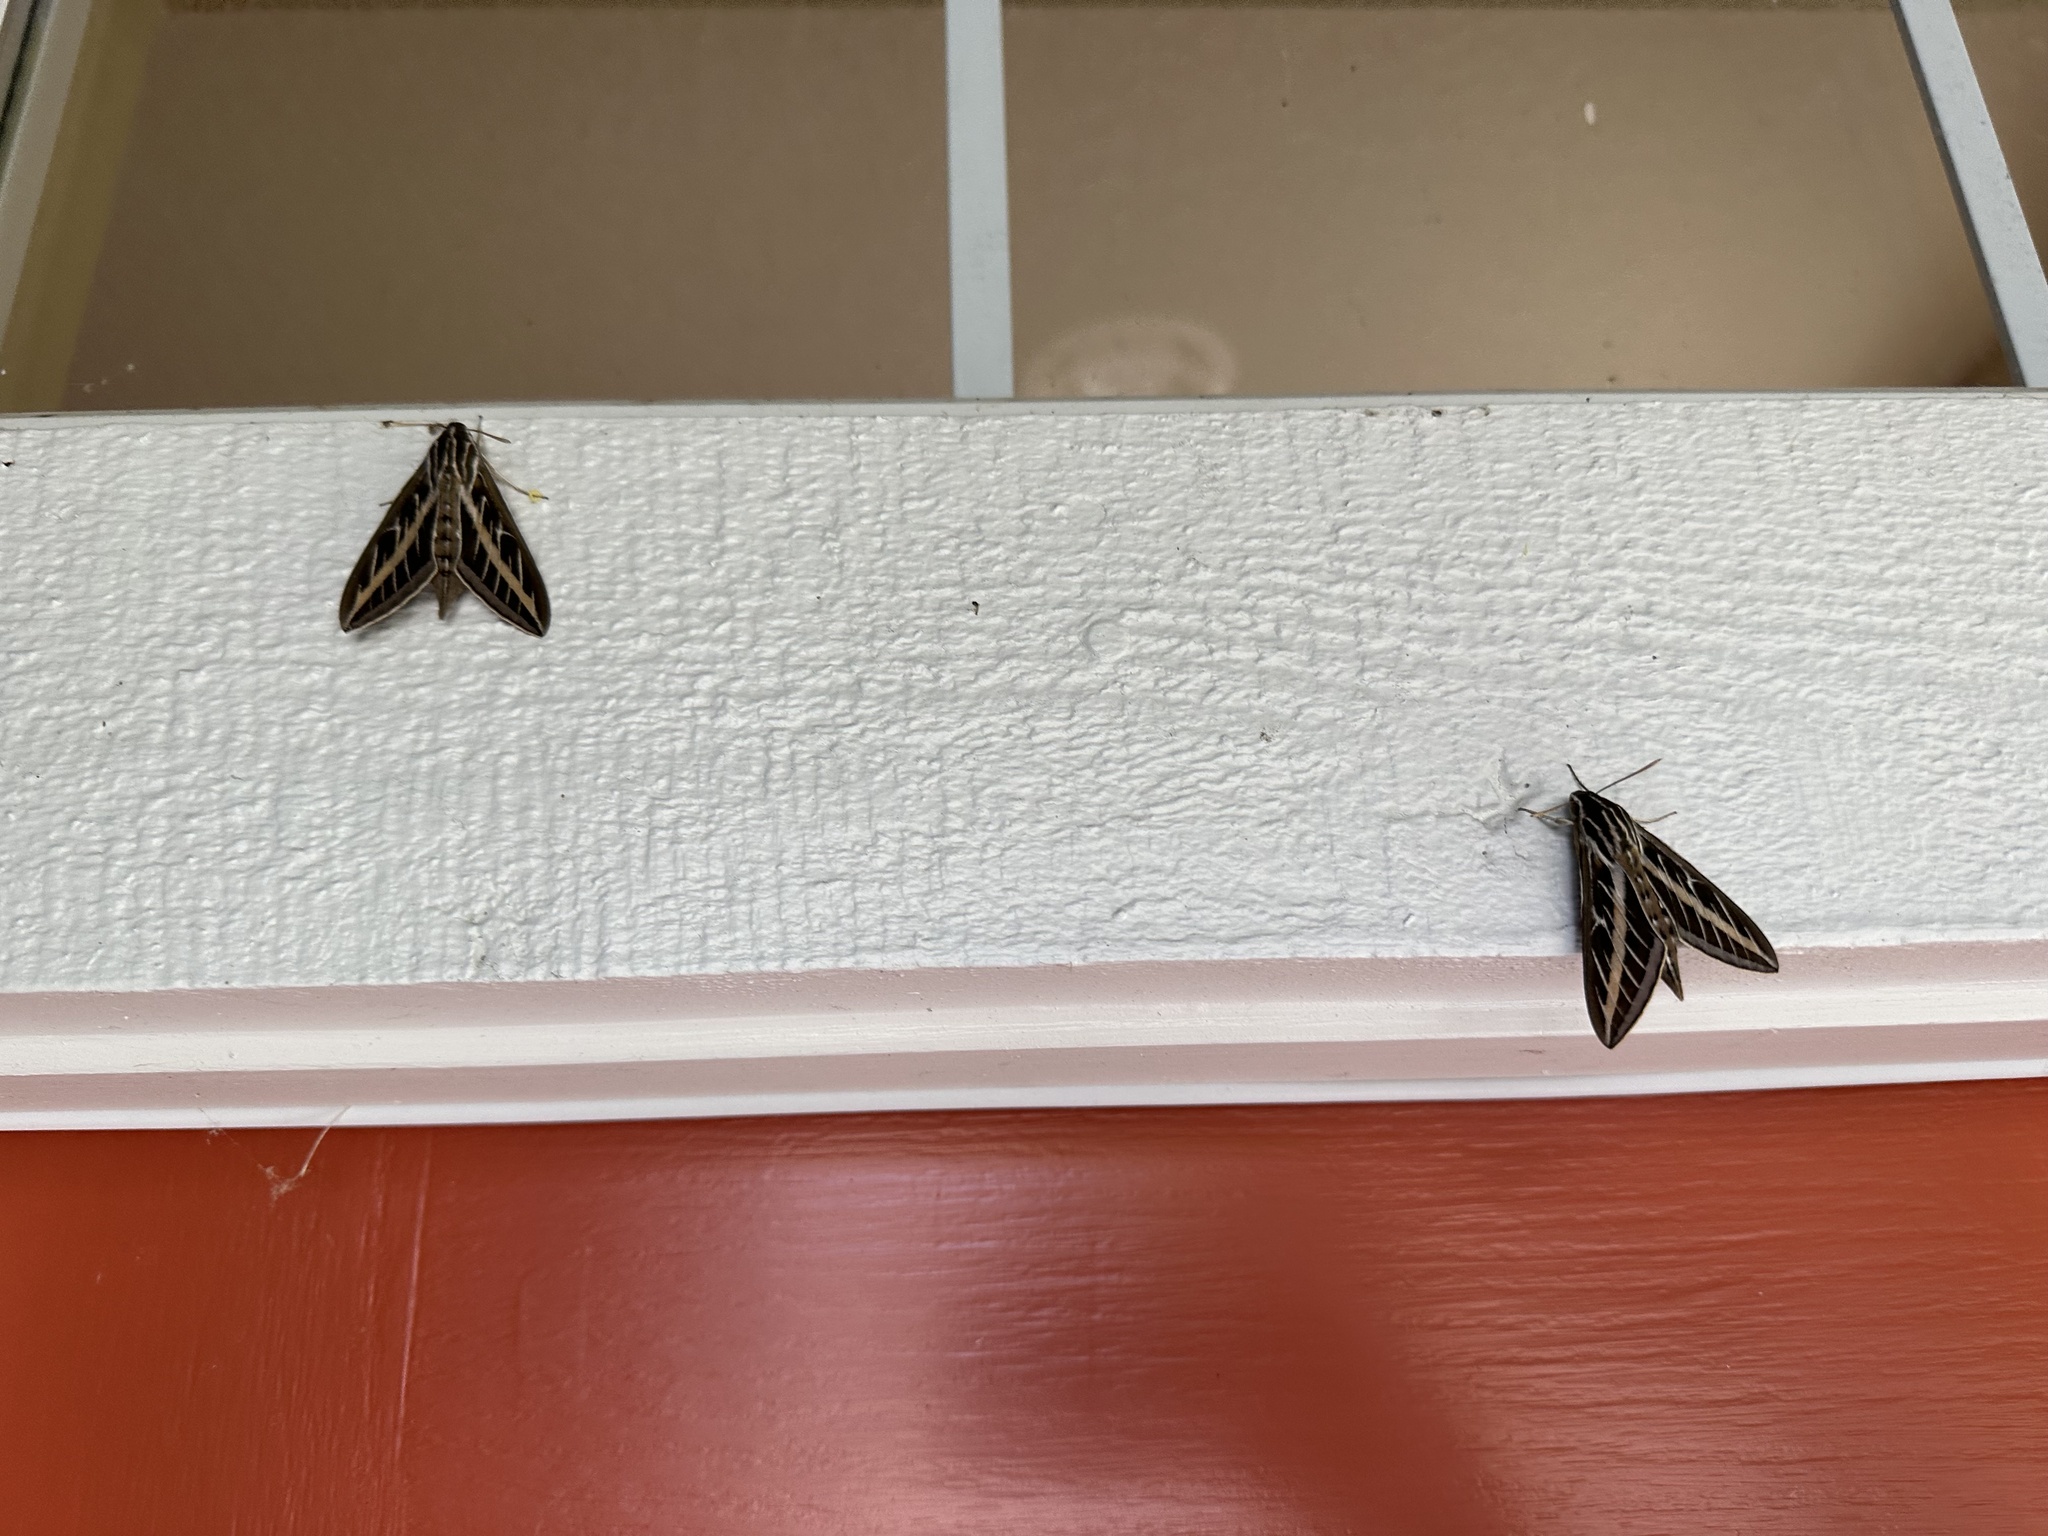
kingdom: Animalia
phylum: Arthropoda
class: Insecta
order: Lepidoptera
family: Sphingidae
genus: Hyles
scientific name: Hyles lineata
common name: White-lined sphinx
